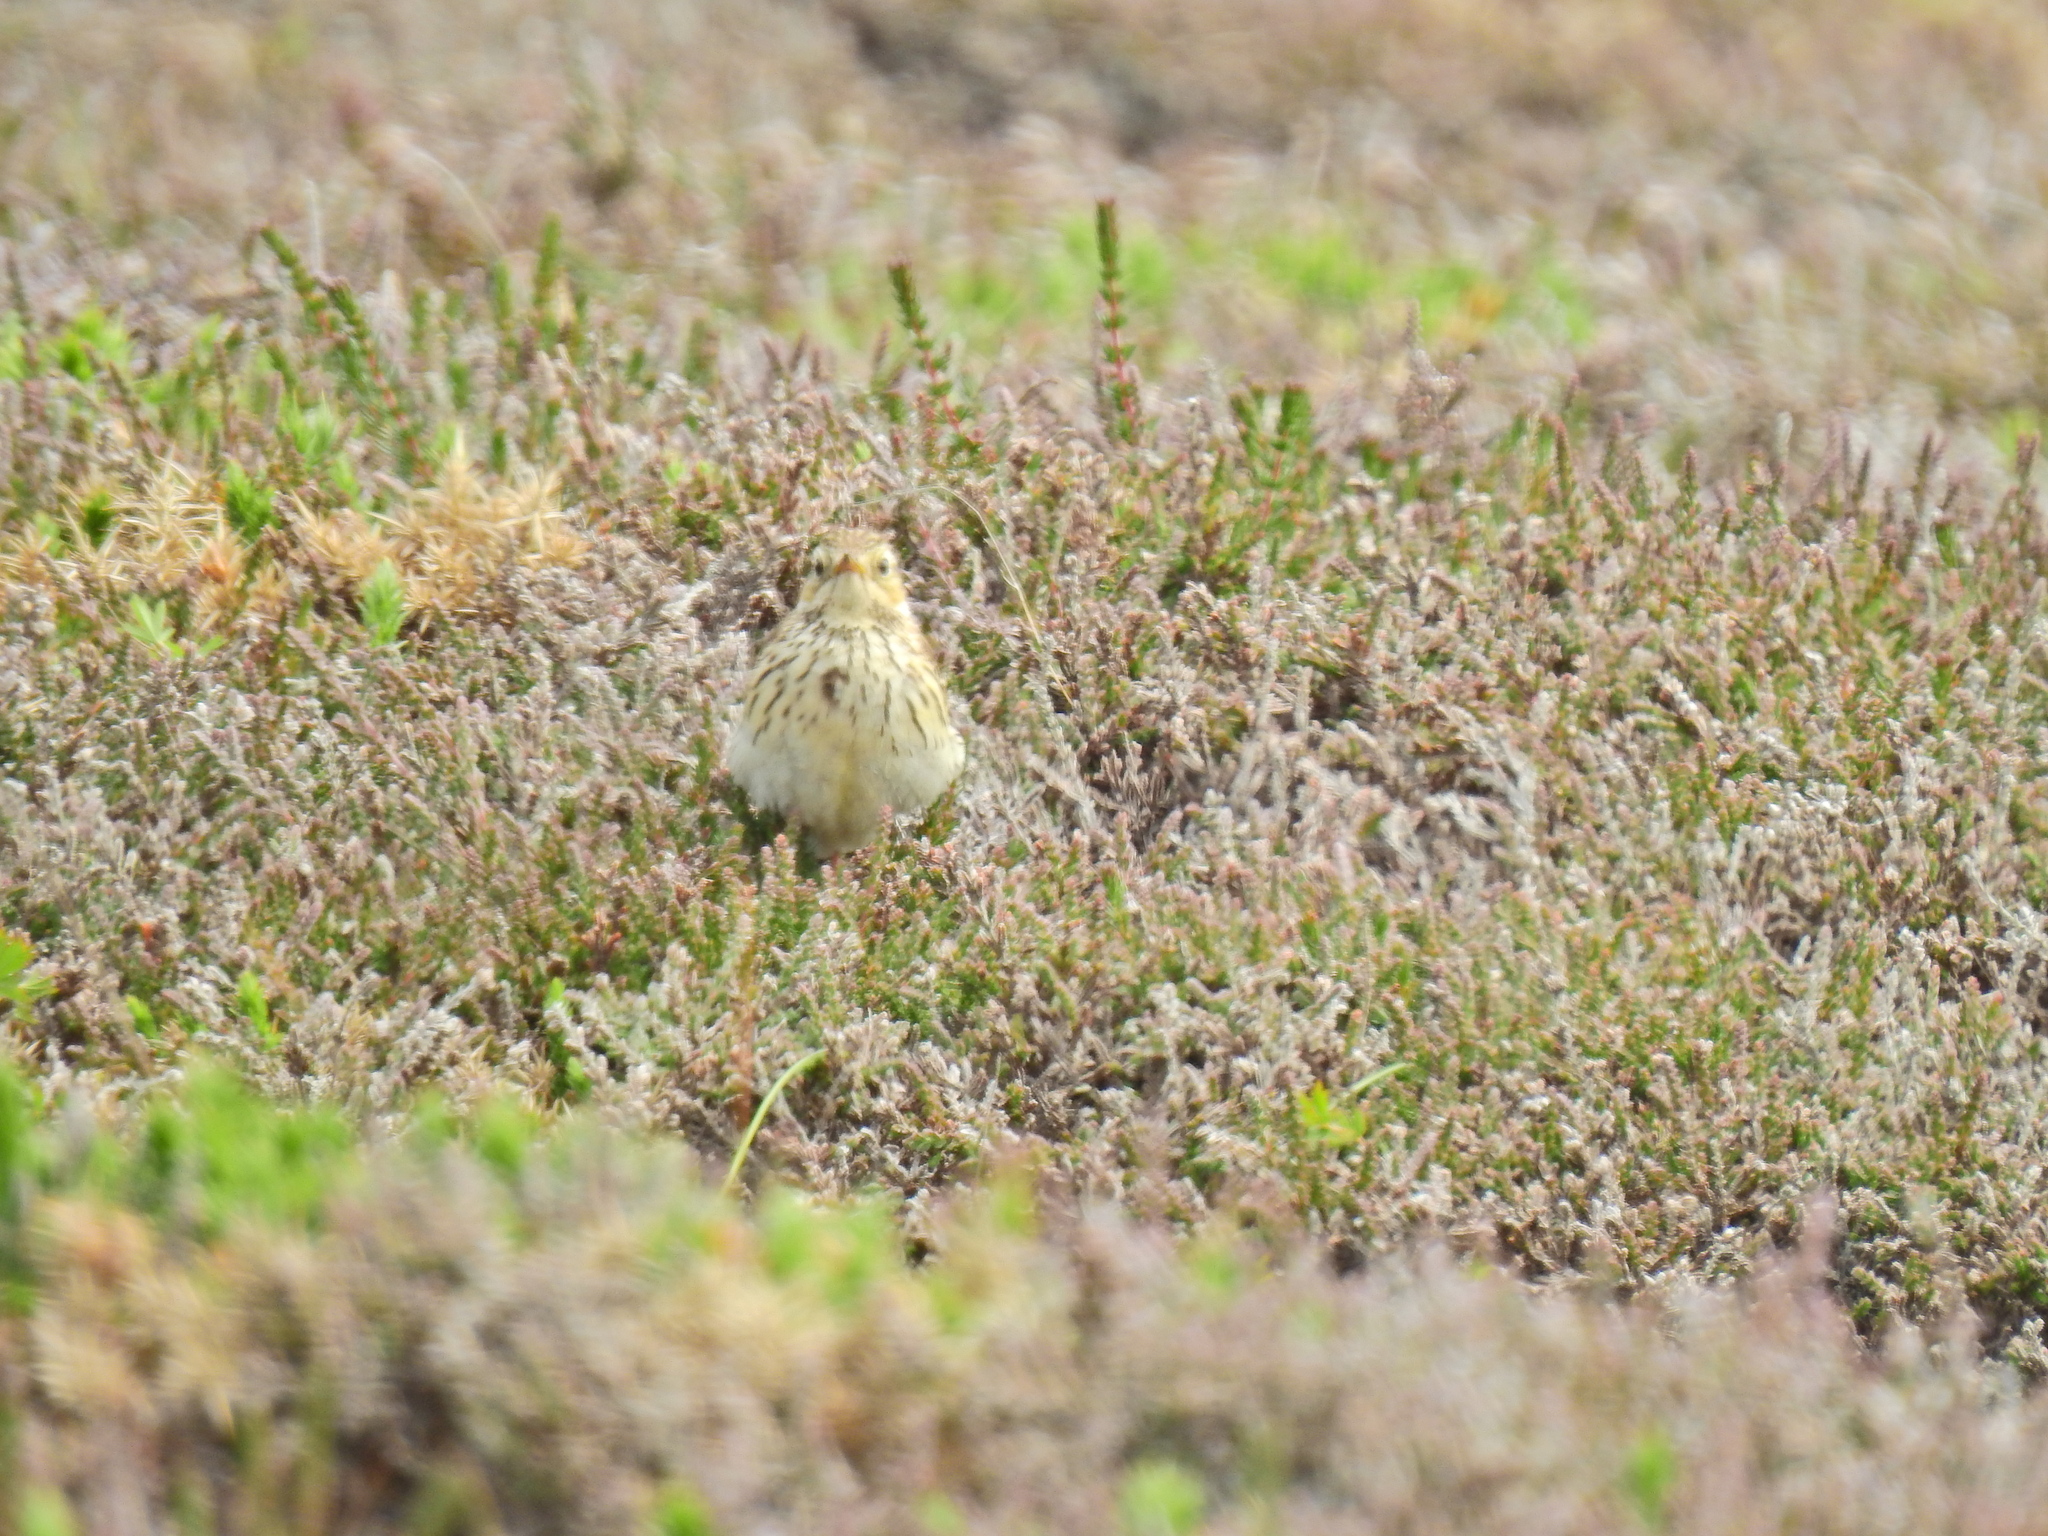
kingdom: Animalia
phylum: Chordata
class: Aves
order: Passeriformes
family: Motacillidae
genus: Anthus
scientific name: Anthus pratensis
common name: Meadow pipit
